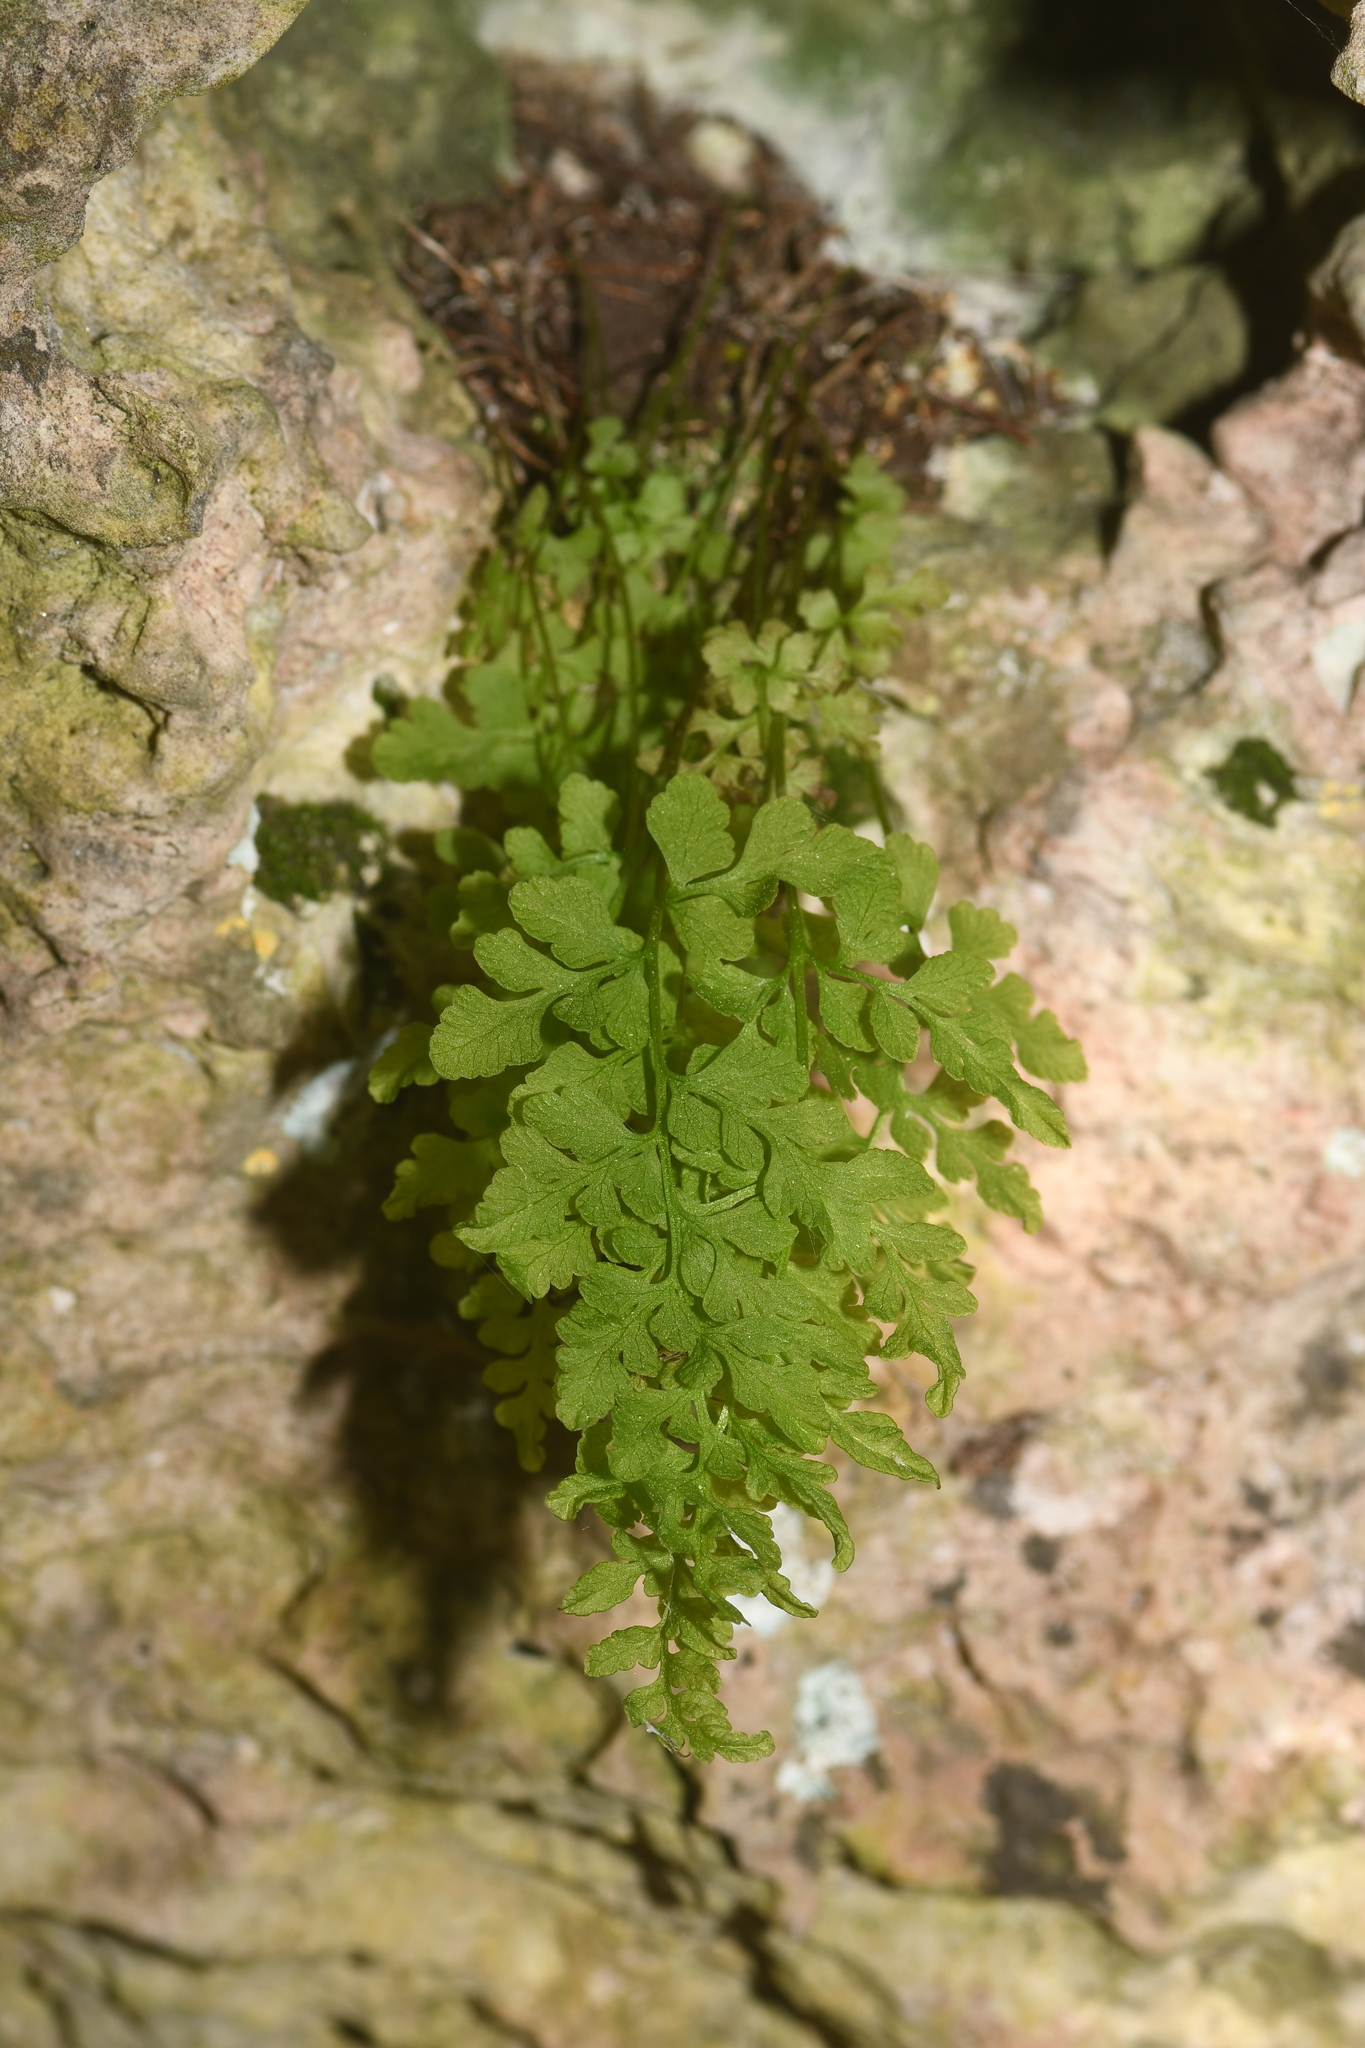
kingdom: Plantae
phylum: Tracheophyta
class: Polypodiopsida
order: Polypodiales
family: Pteridaceae
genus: Cryptogramma
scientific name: Cryptogramma stelleri
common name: Cliff-brake
